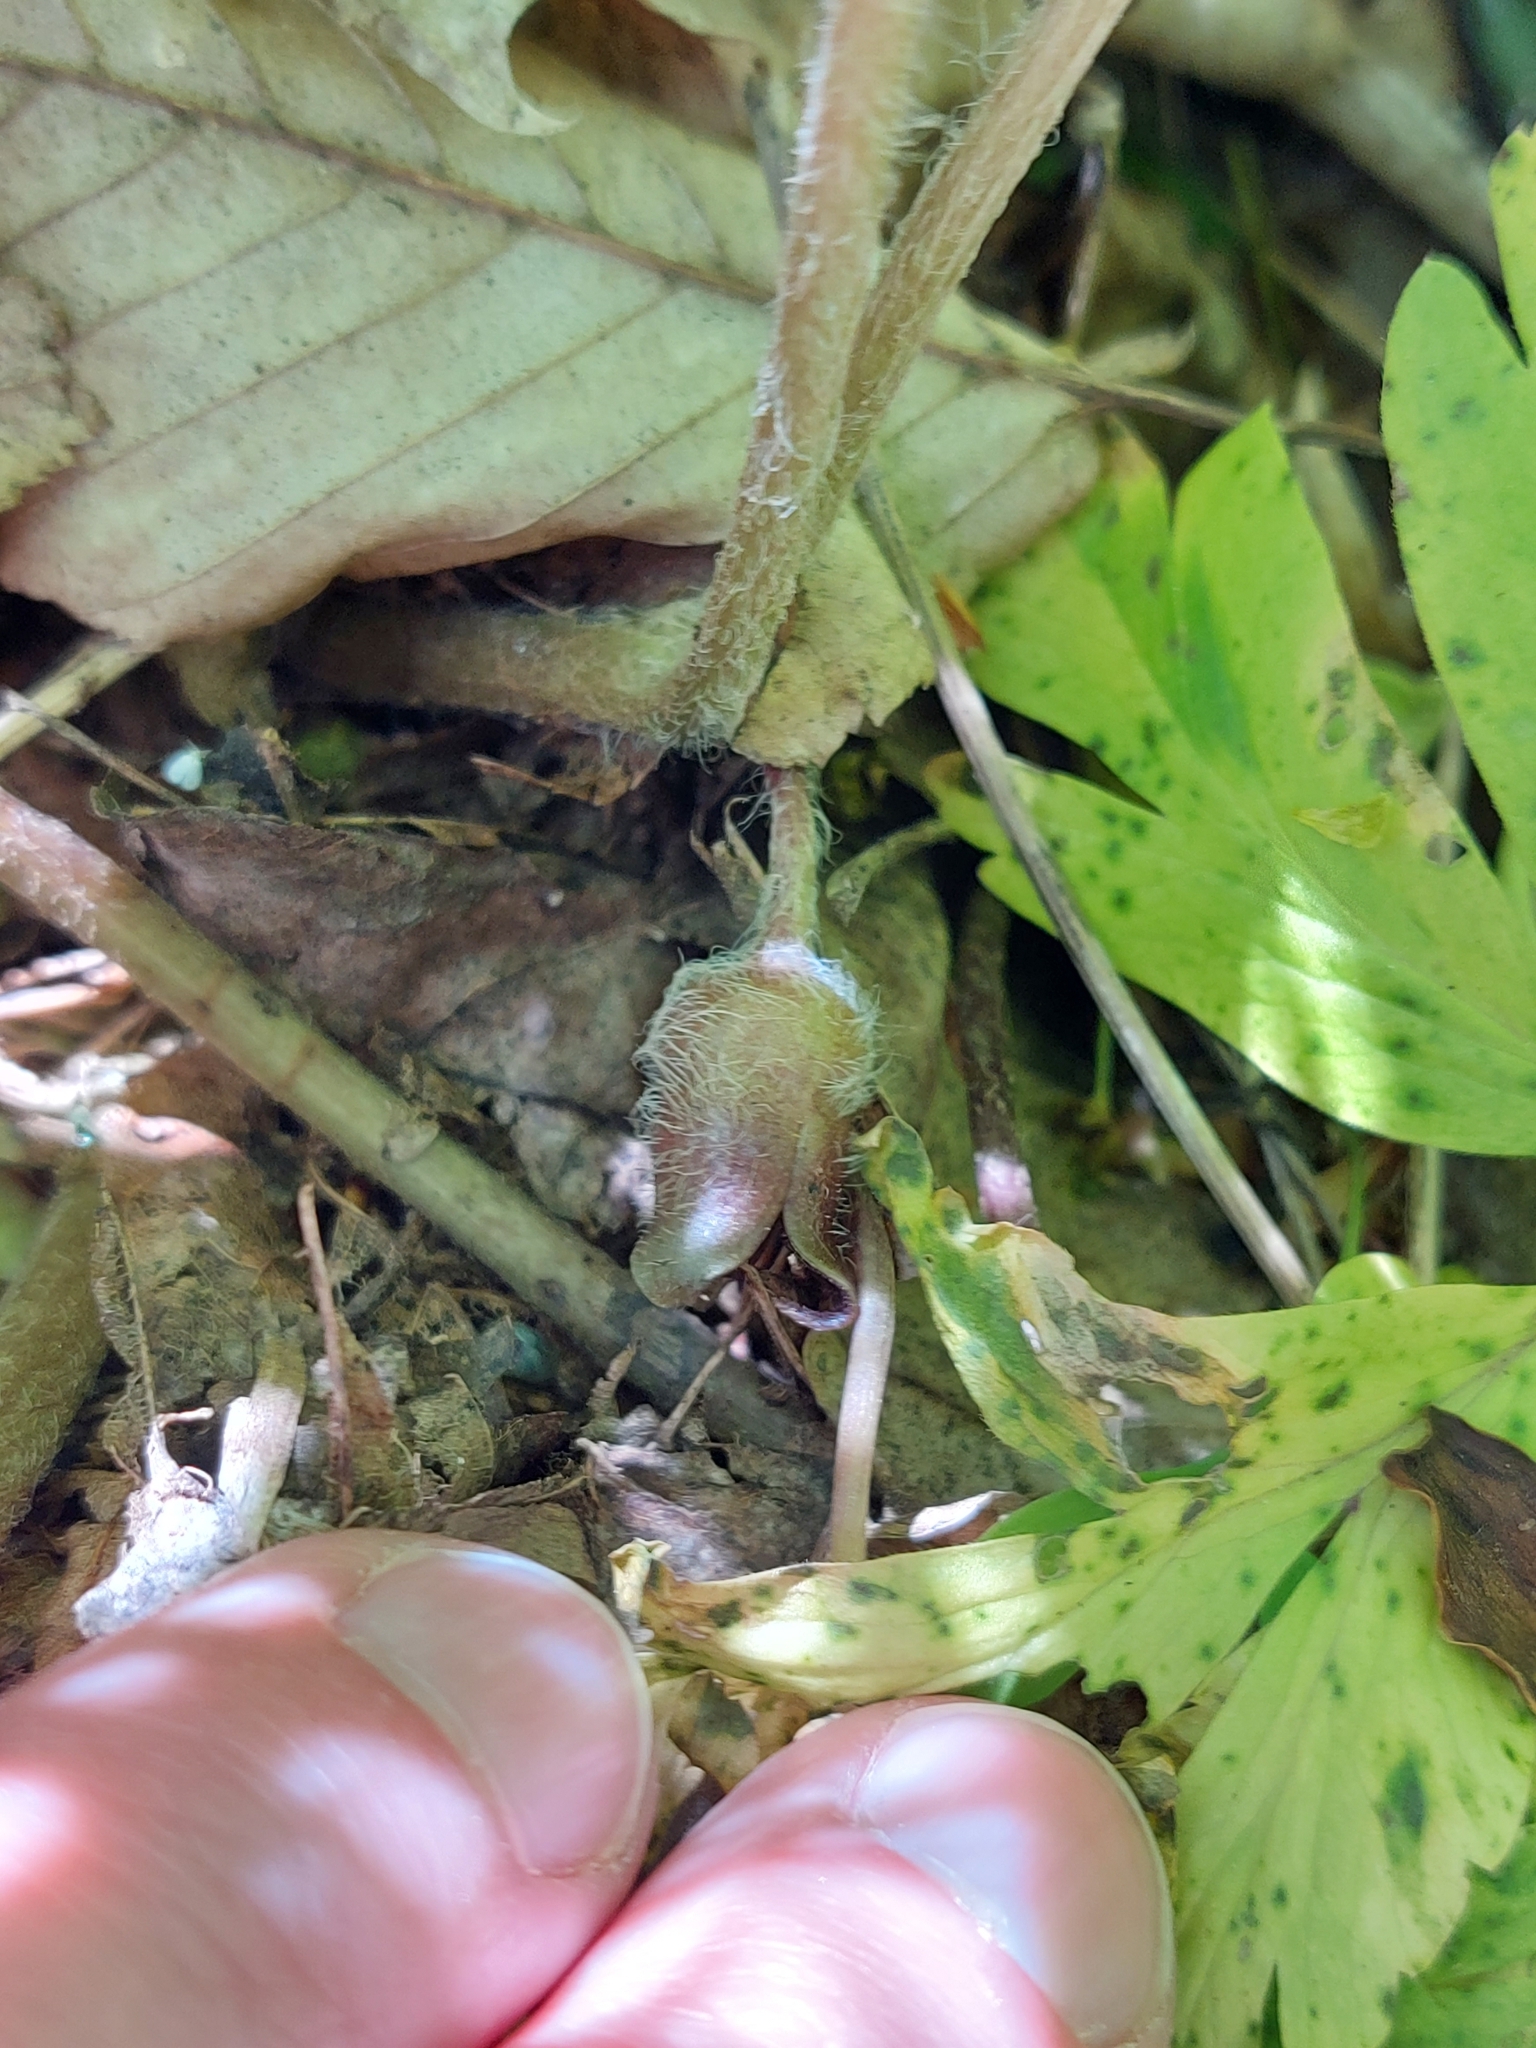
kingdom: Plantae
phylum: Tracheophyta
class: Magnoliopsida
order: Piperales
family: Aristolochiaceae
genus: Asarum
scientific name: Asarum europaeum
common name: Asarabacca
